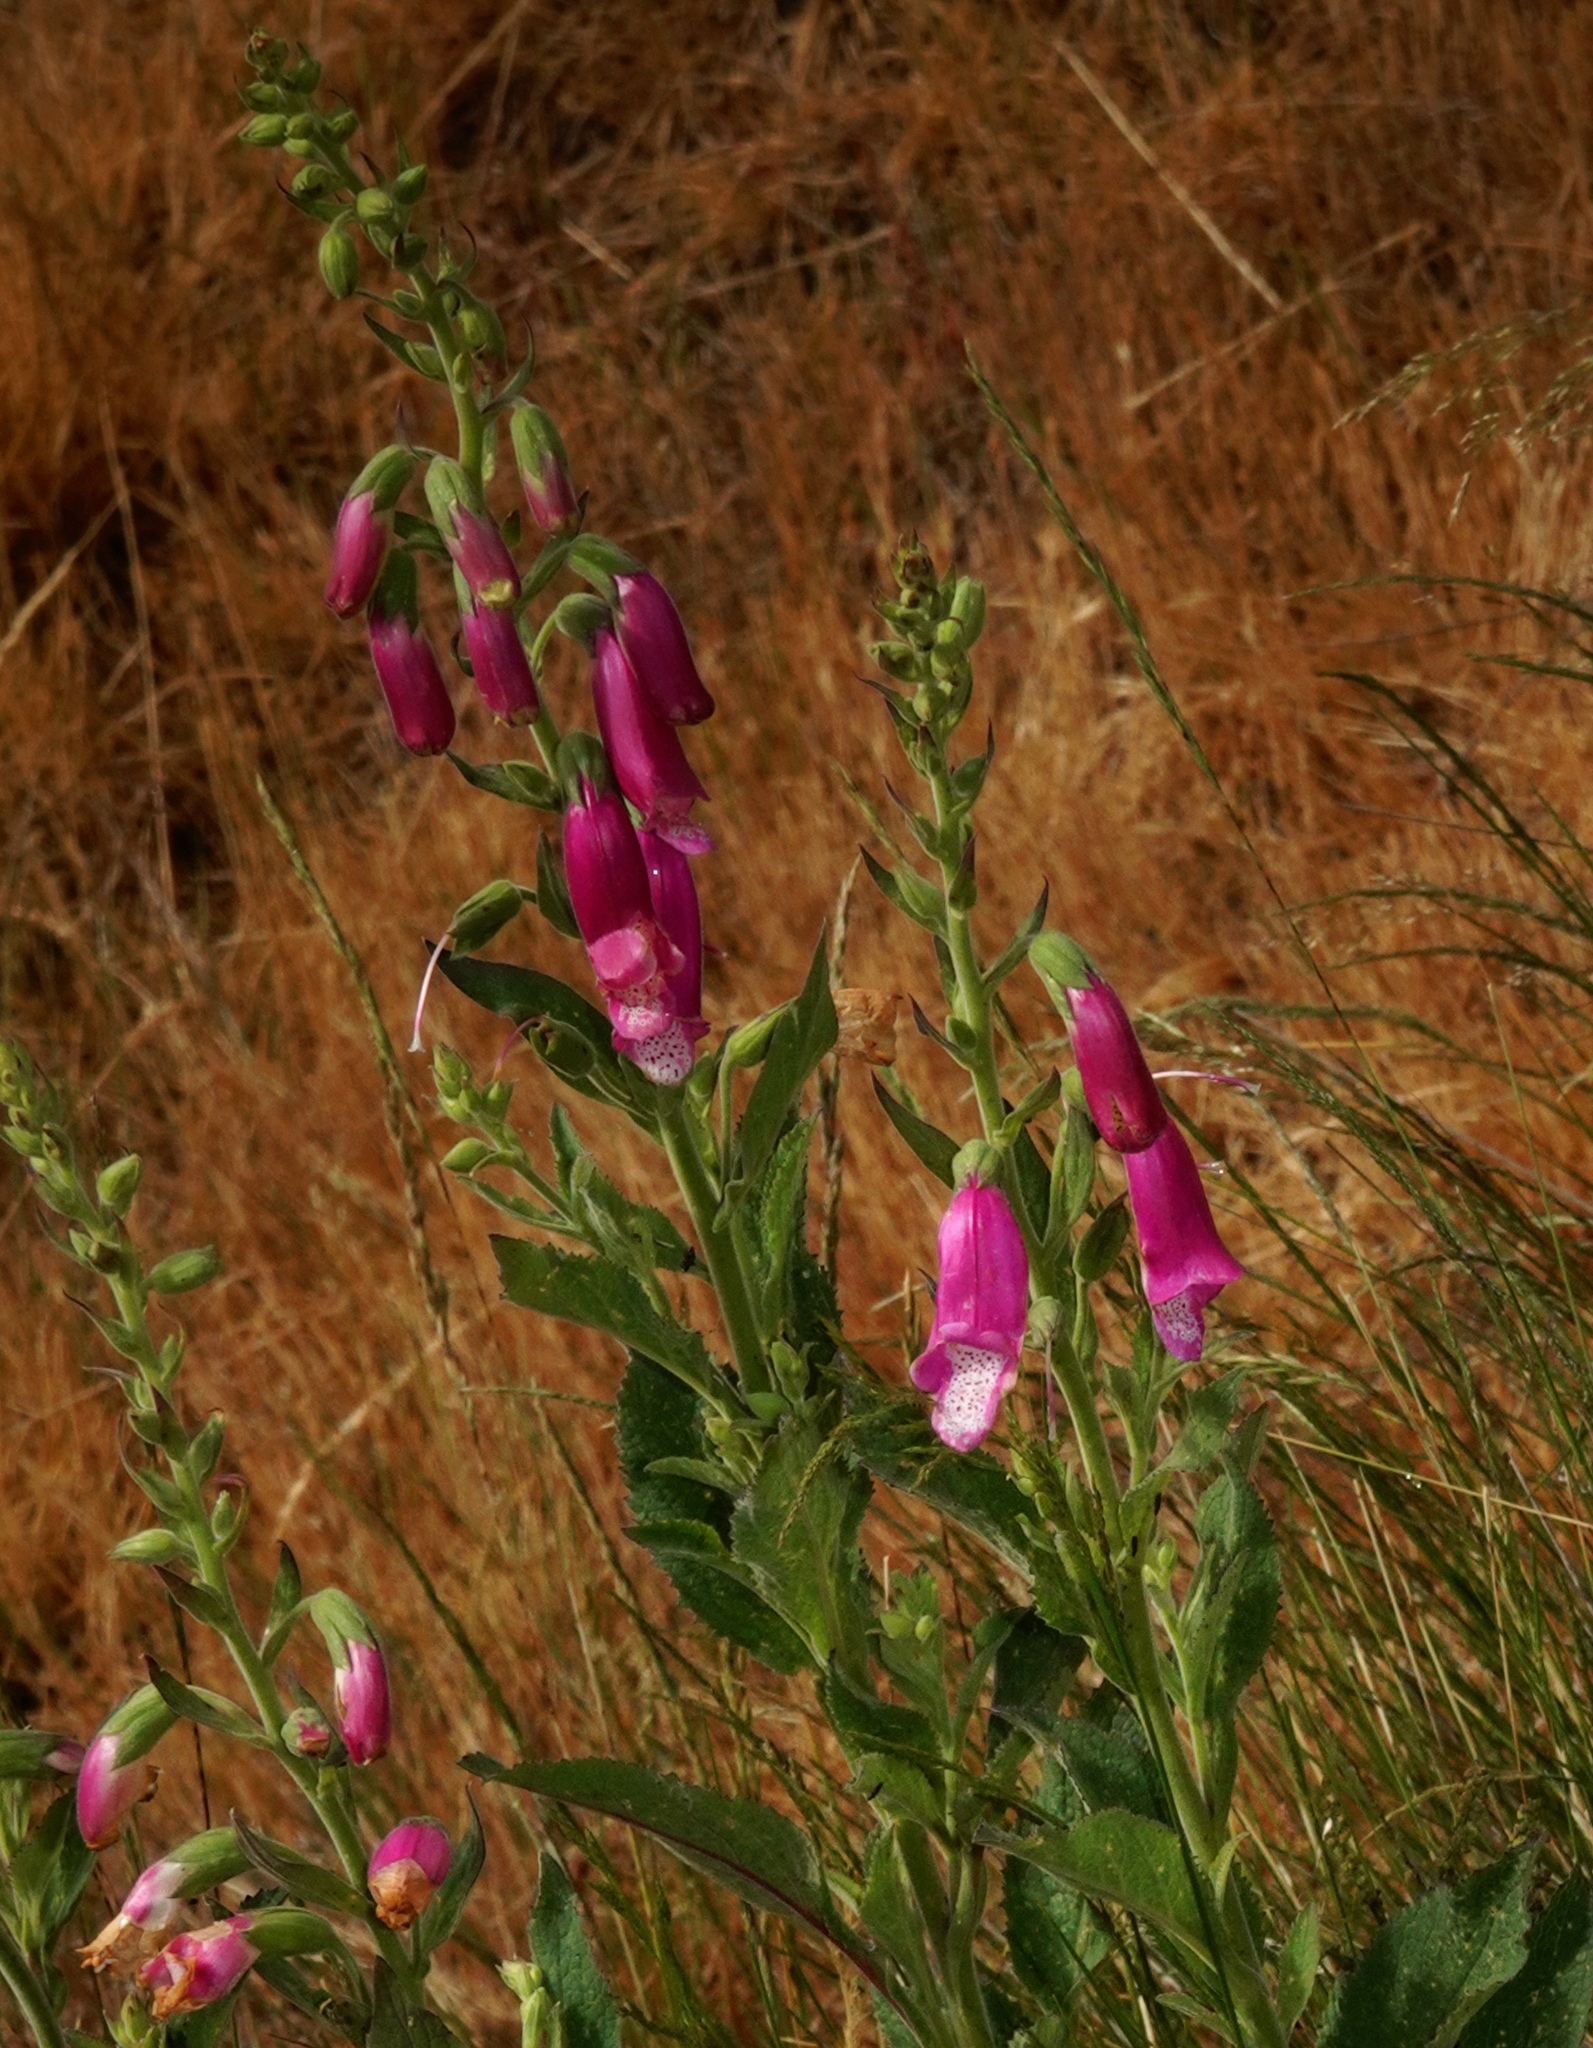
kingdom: Plantae
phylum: Tracheophyta
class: Magnoliopsida
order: Lamiales
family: Plantaginaceae
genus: Digitalis
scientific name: Digitalis purpurea
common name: Foxglove
